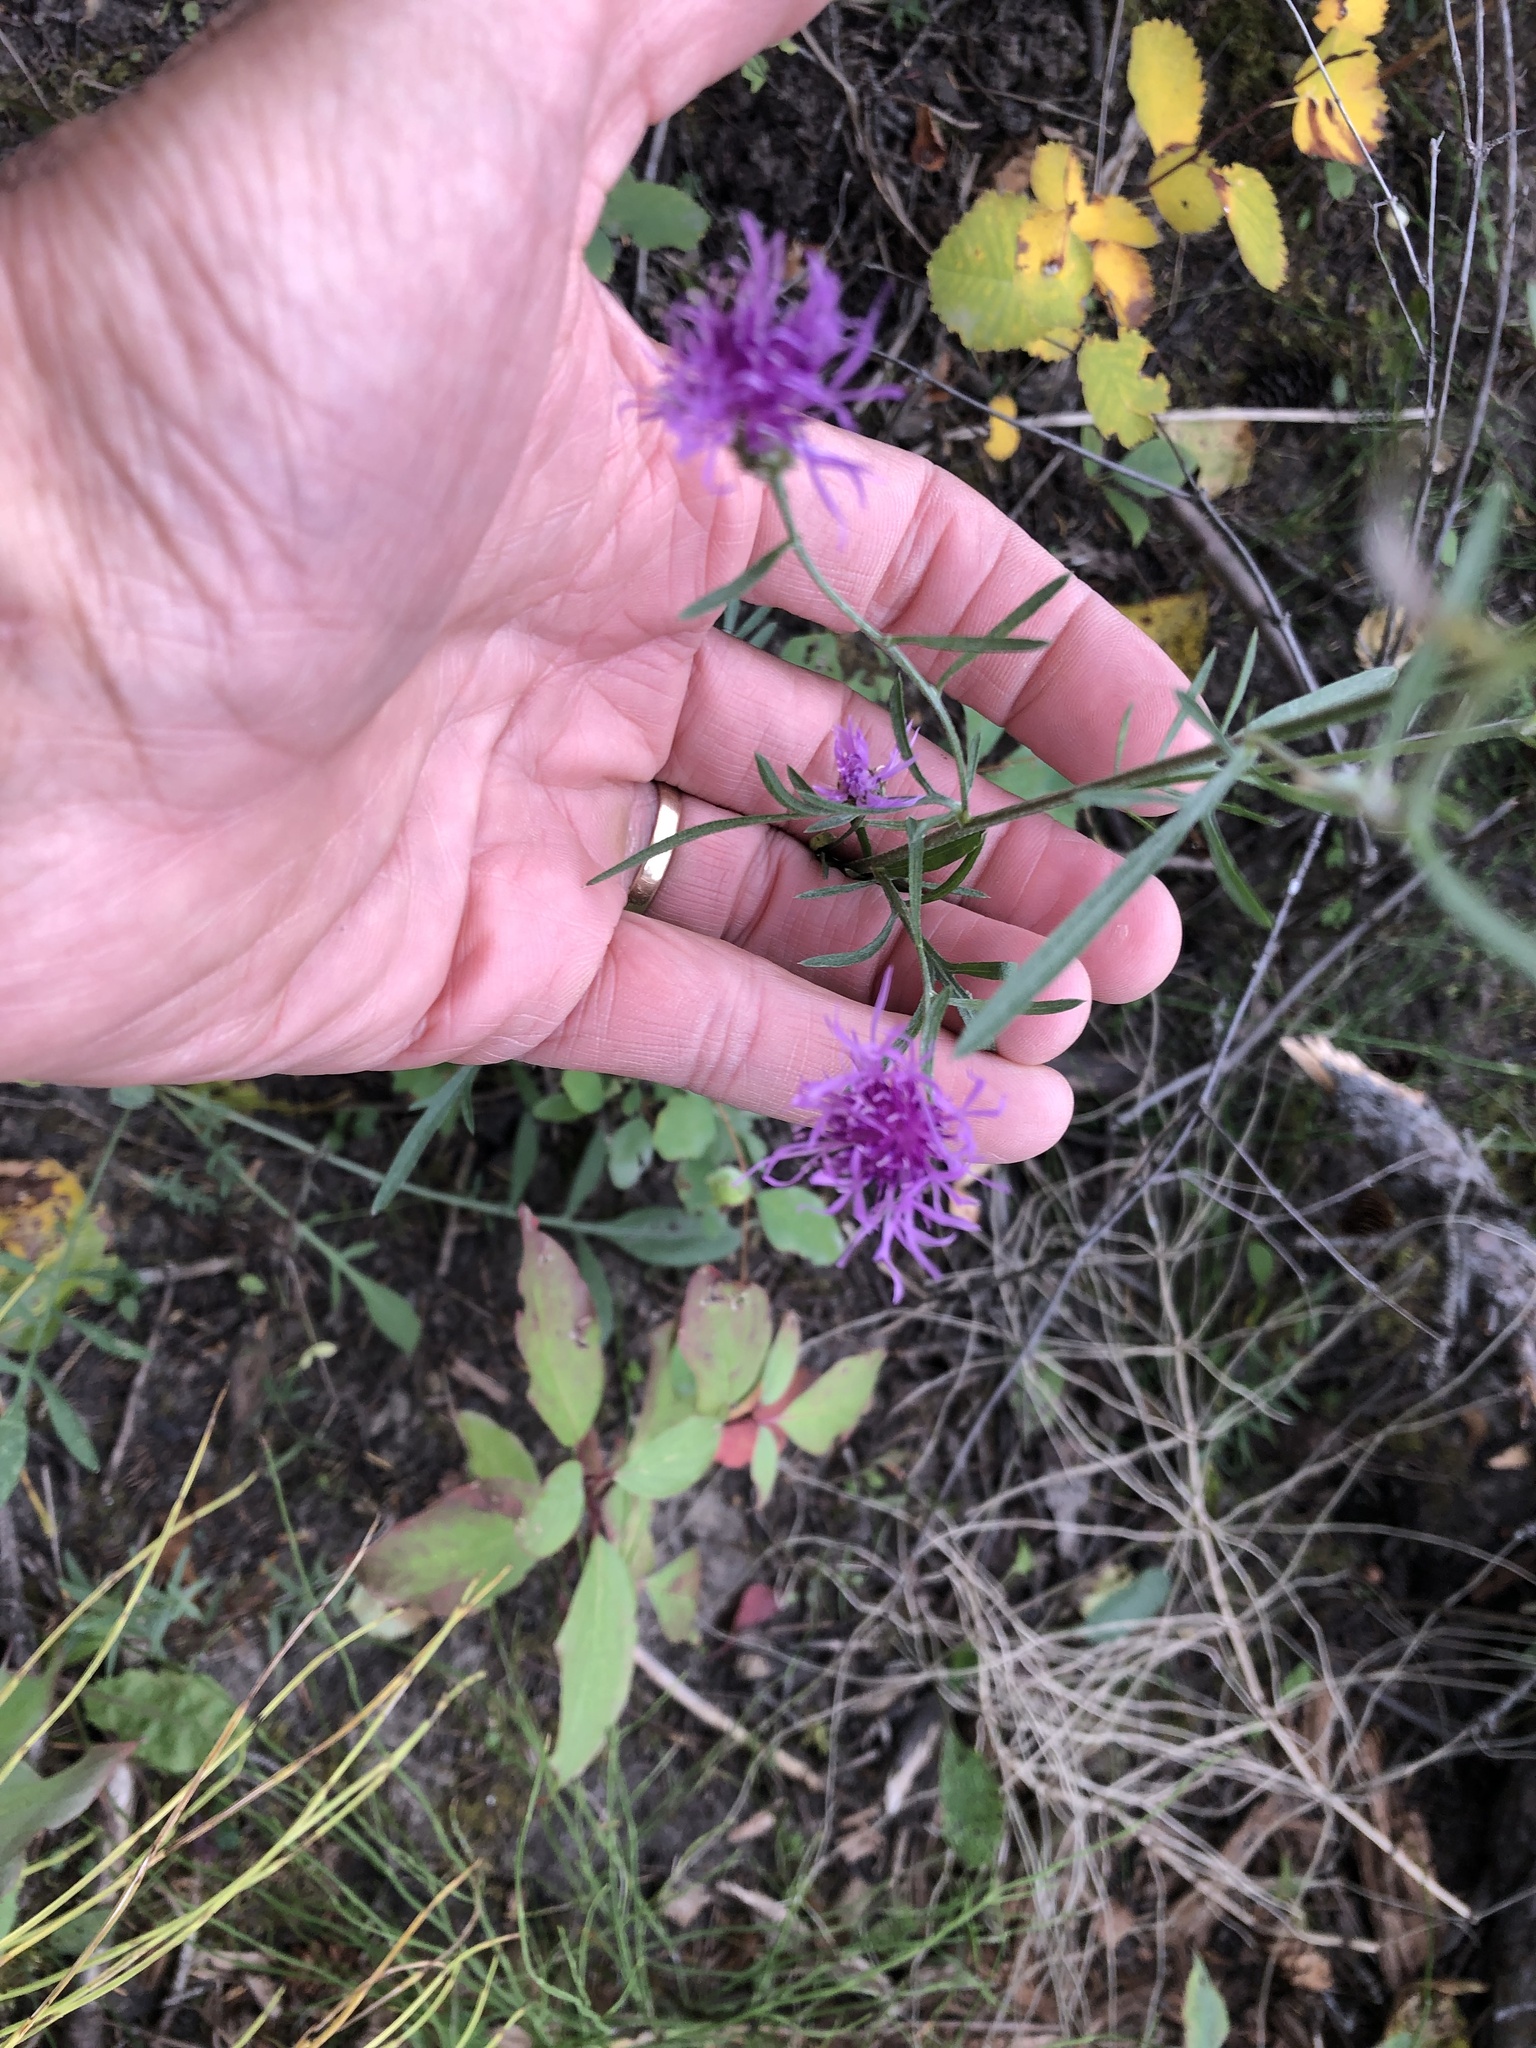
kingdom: Plantae
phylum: Tracheophyta
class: Magnoliopsida
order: Asterales
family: Asteraceae
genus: Centaurea
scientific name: Centaurea stoebe
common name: Spotted knapweed
